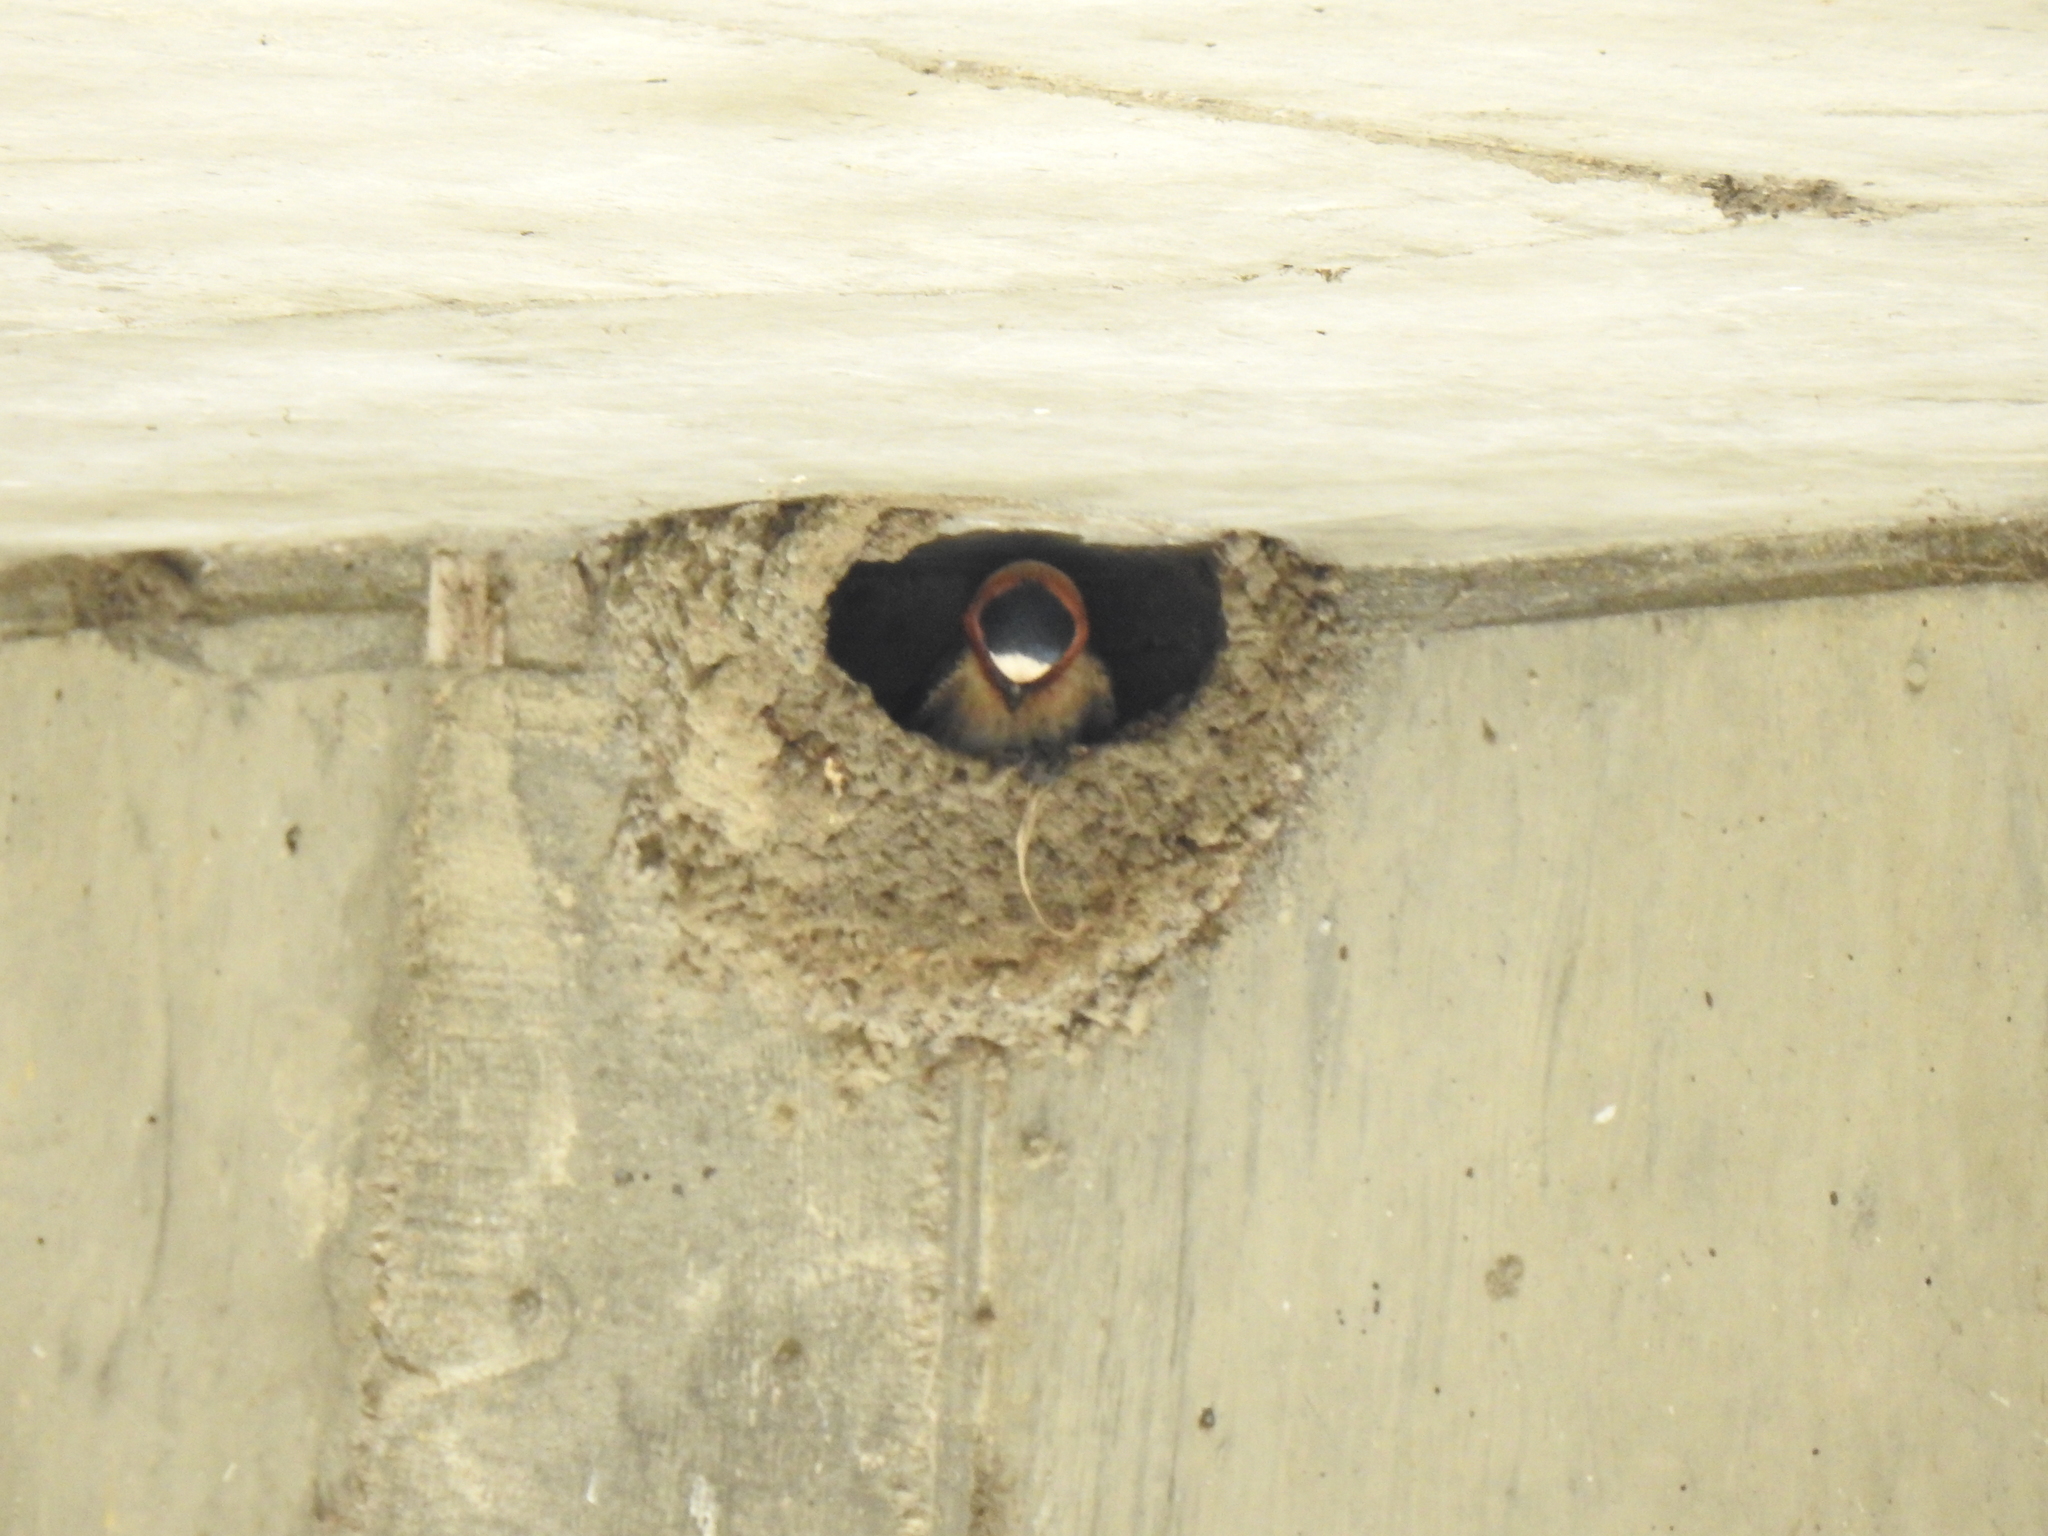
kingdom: Animalia
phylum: Chordata
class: Aves
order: Passeriformes
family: Hirundinidae
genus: Petrochelidon
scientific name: Petrochelidon pyrrhonota
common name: American cliff swallow
